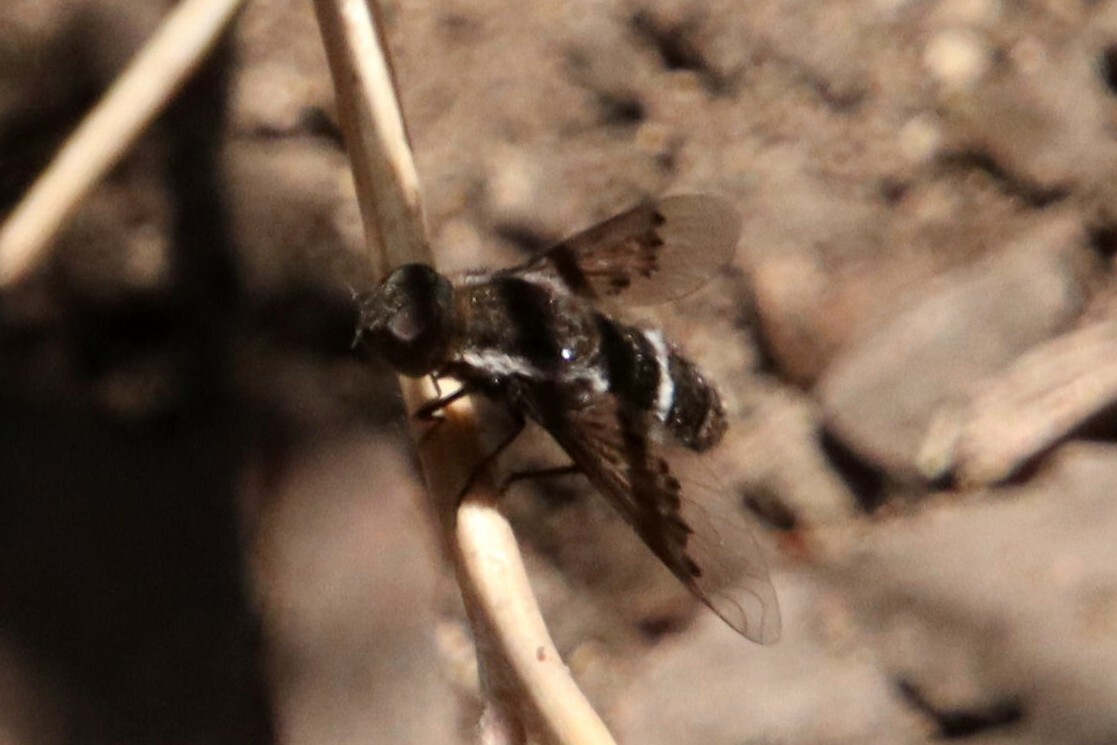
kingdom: Animalia
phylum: Arthropoda
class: Insecta
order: Diptera
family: Bombyliidae
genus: Hemipenthes
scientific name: Hemipenthes differens
